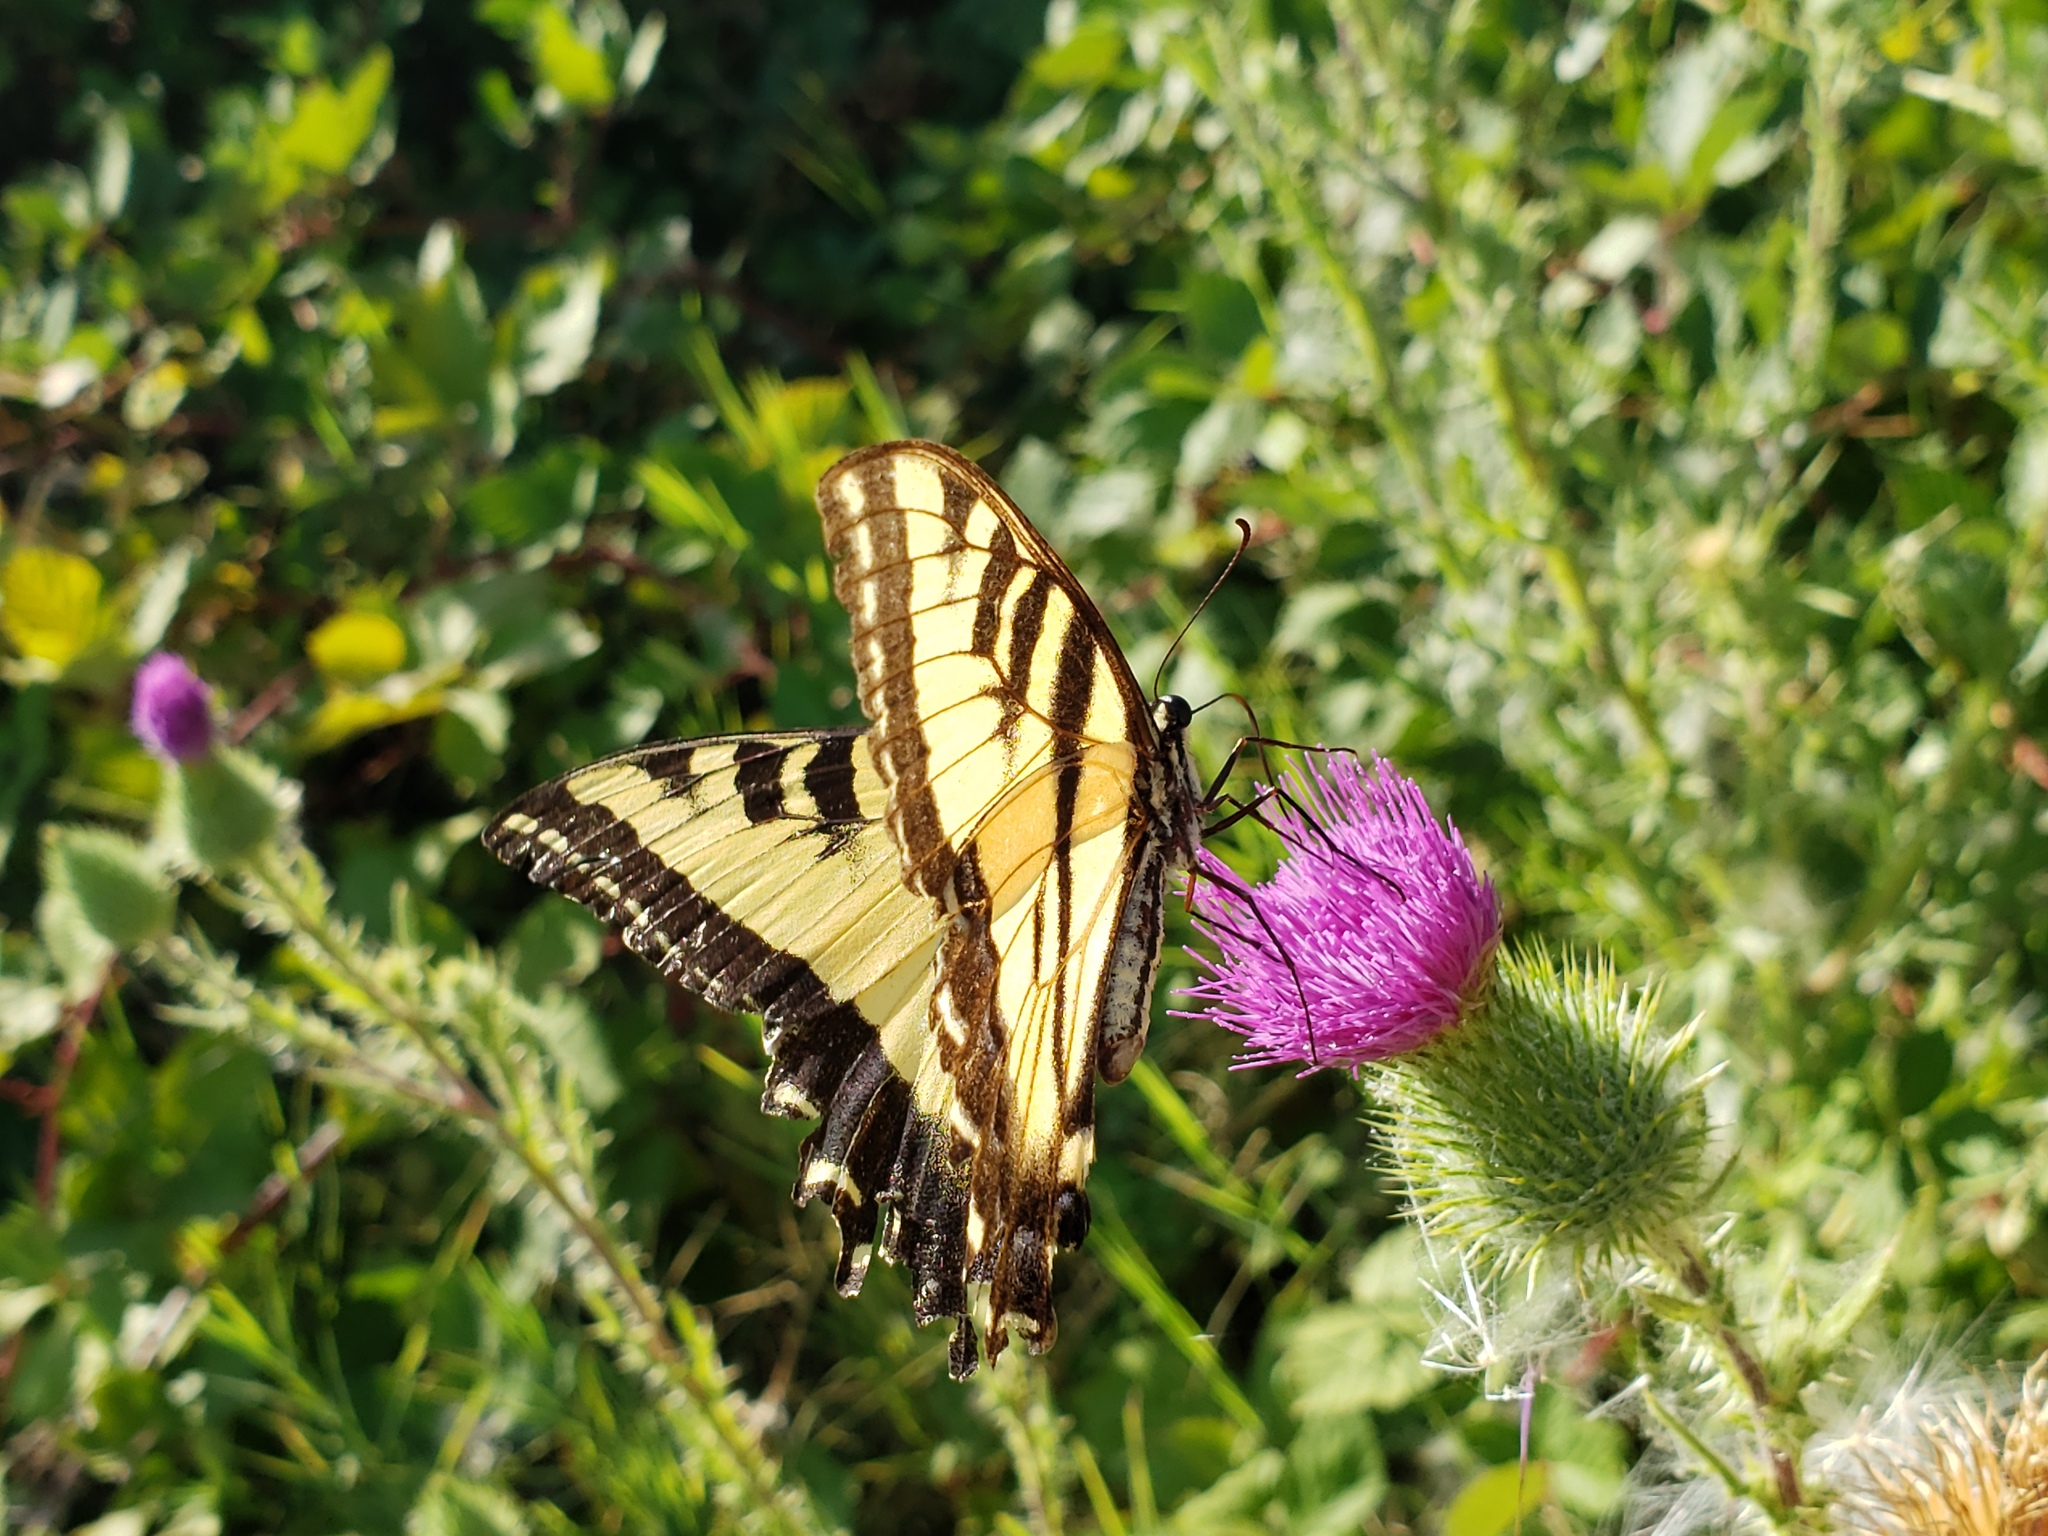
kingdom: Animalia
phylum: Arthropoda
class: Insecta
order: Lepidoptera
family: Papilionidae
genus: Papilio
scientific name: Papilio rutulus
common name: Western tiger swallowtail
